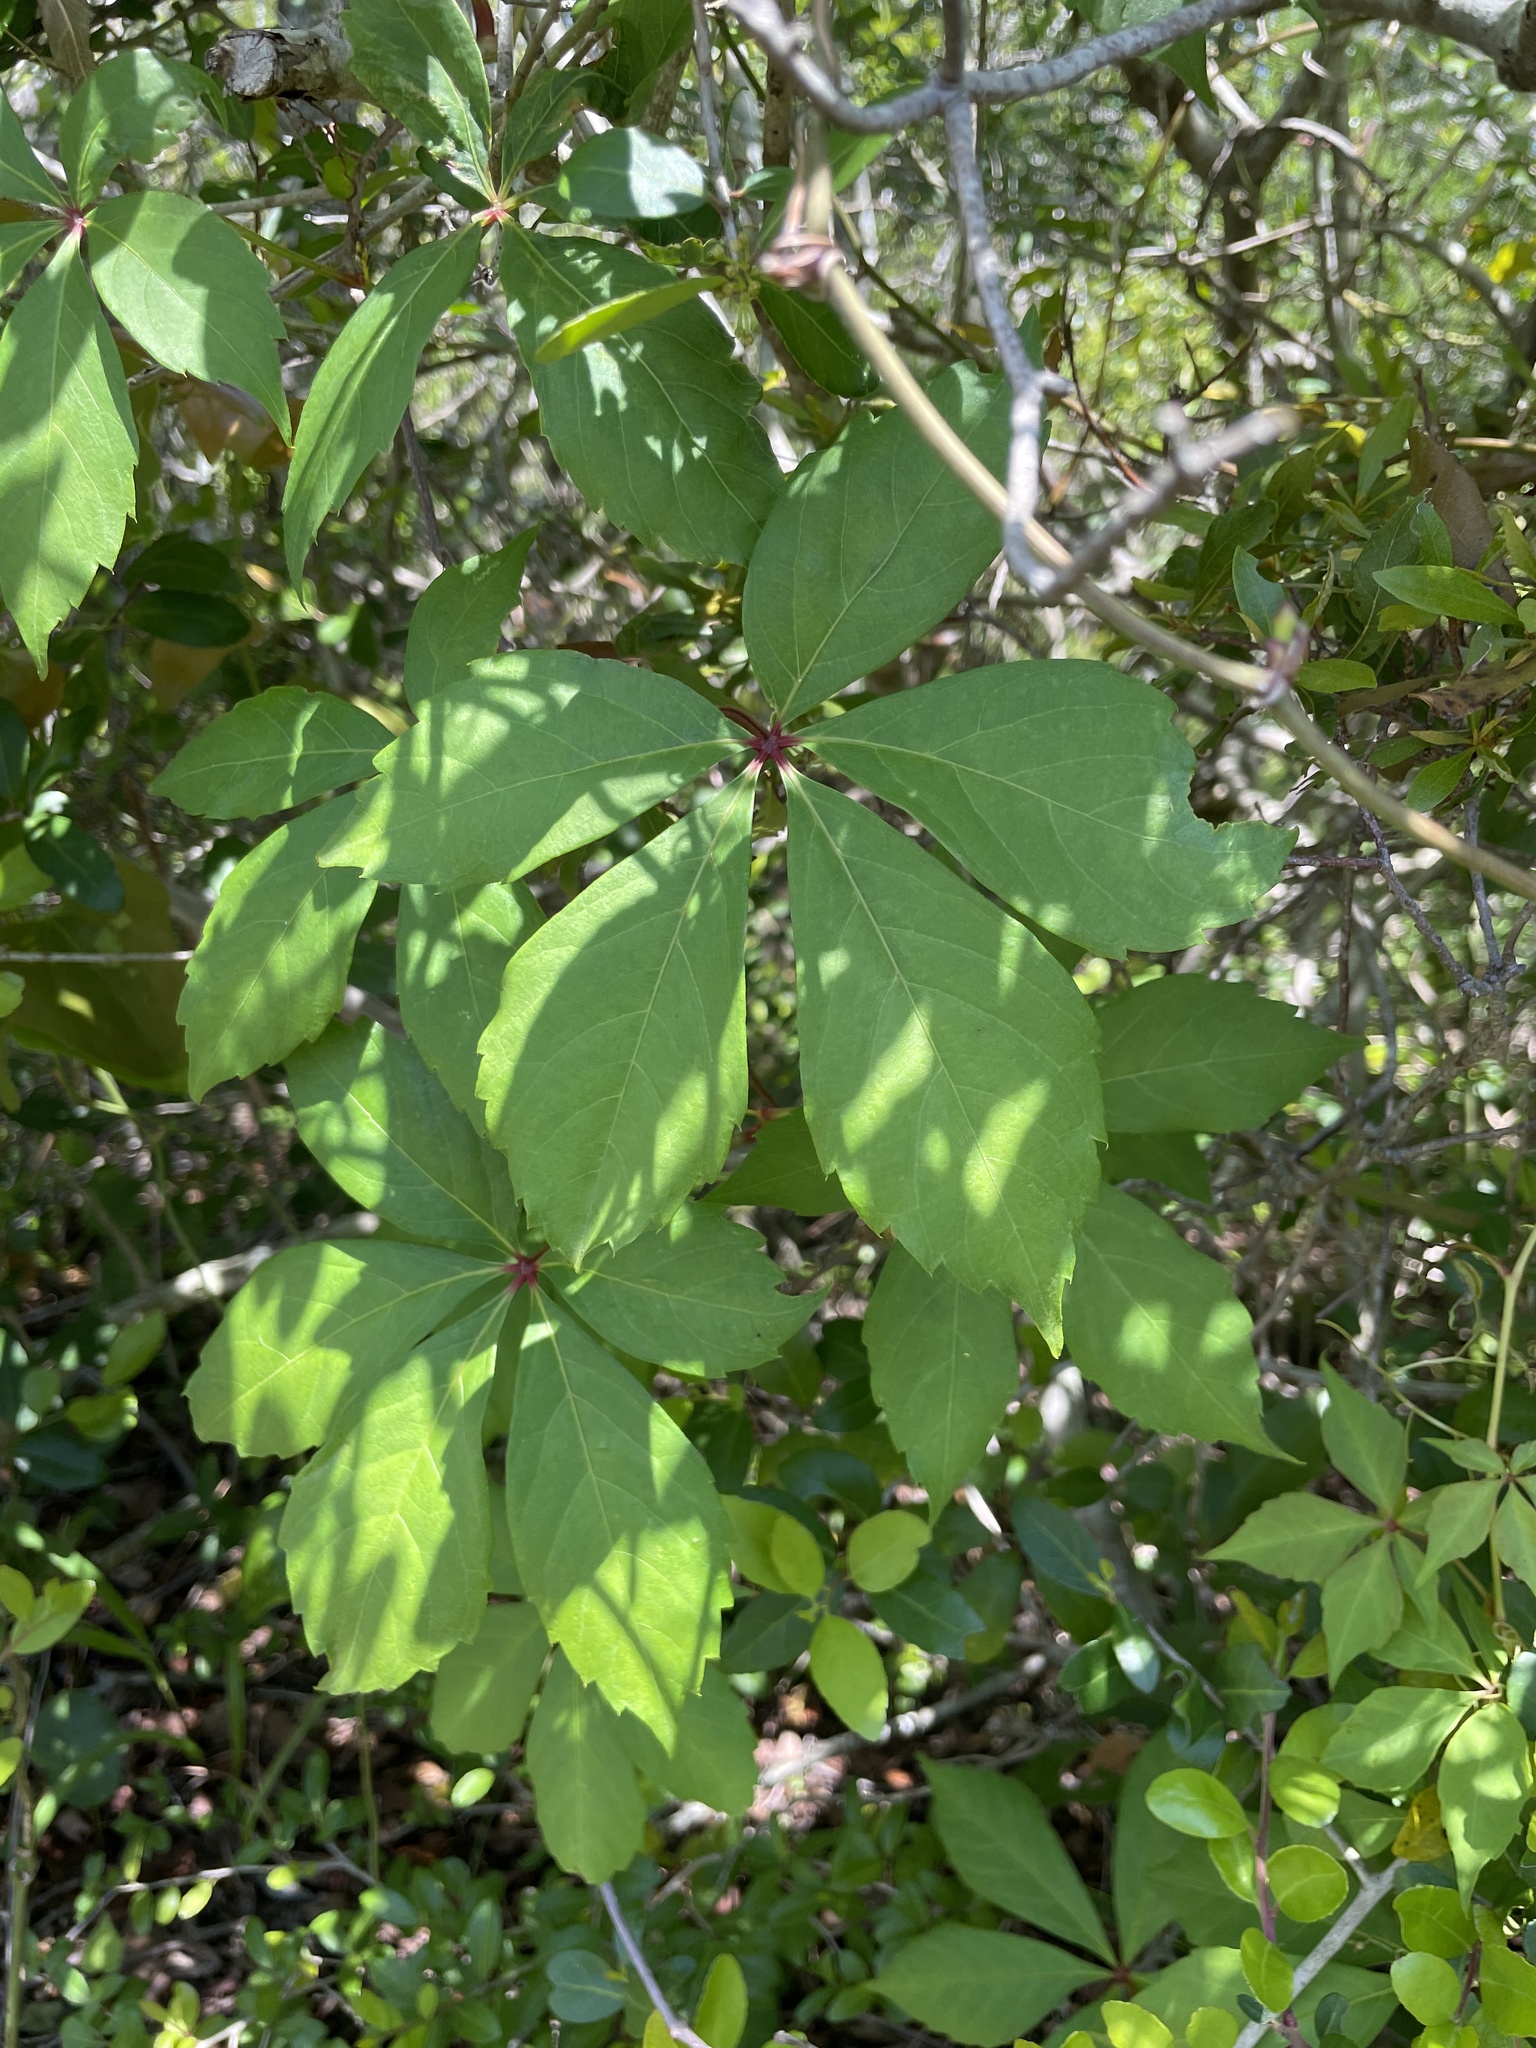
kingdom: Plantae
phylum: Tracheophyta
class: Magnoliopsida
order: Vitales
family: Vitaceae
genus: Parthenocissus
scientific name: Parthenocissus quinquefolia
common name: Virginia-creeper
